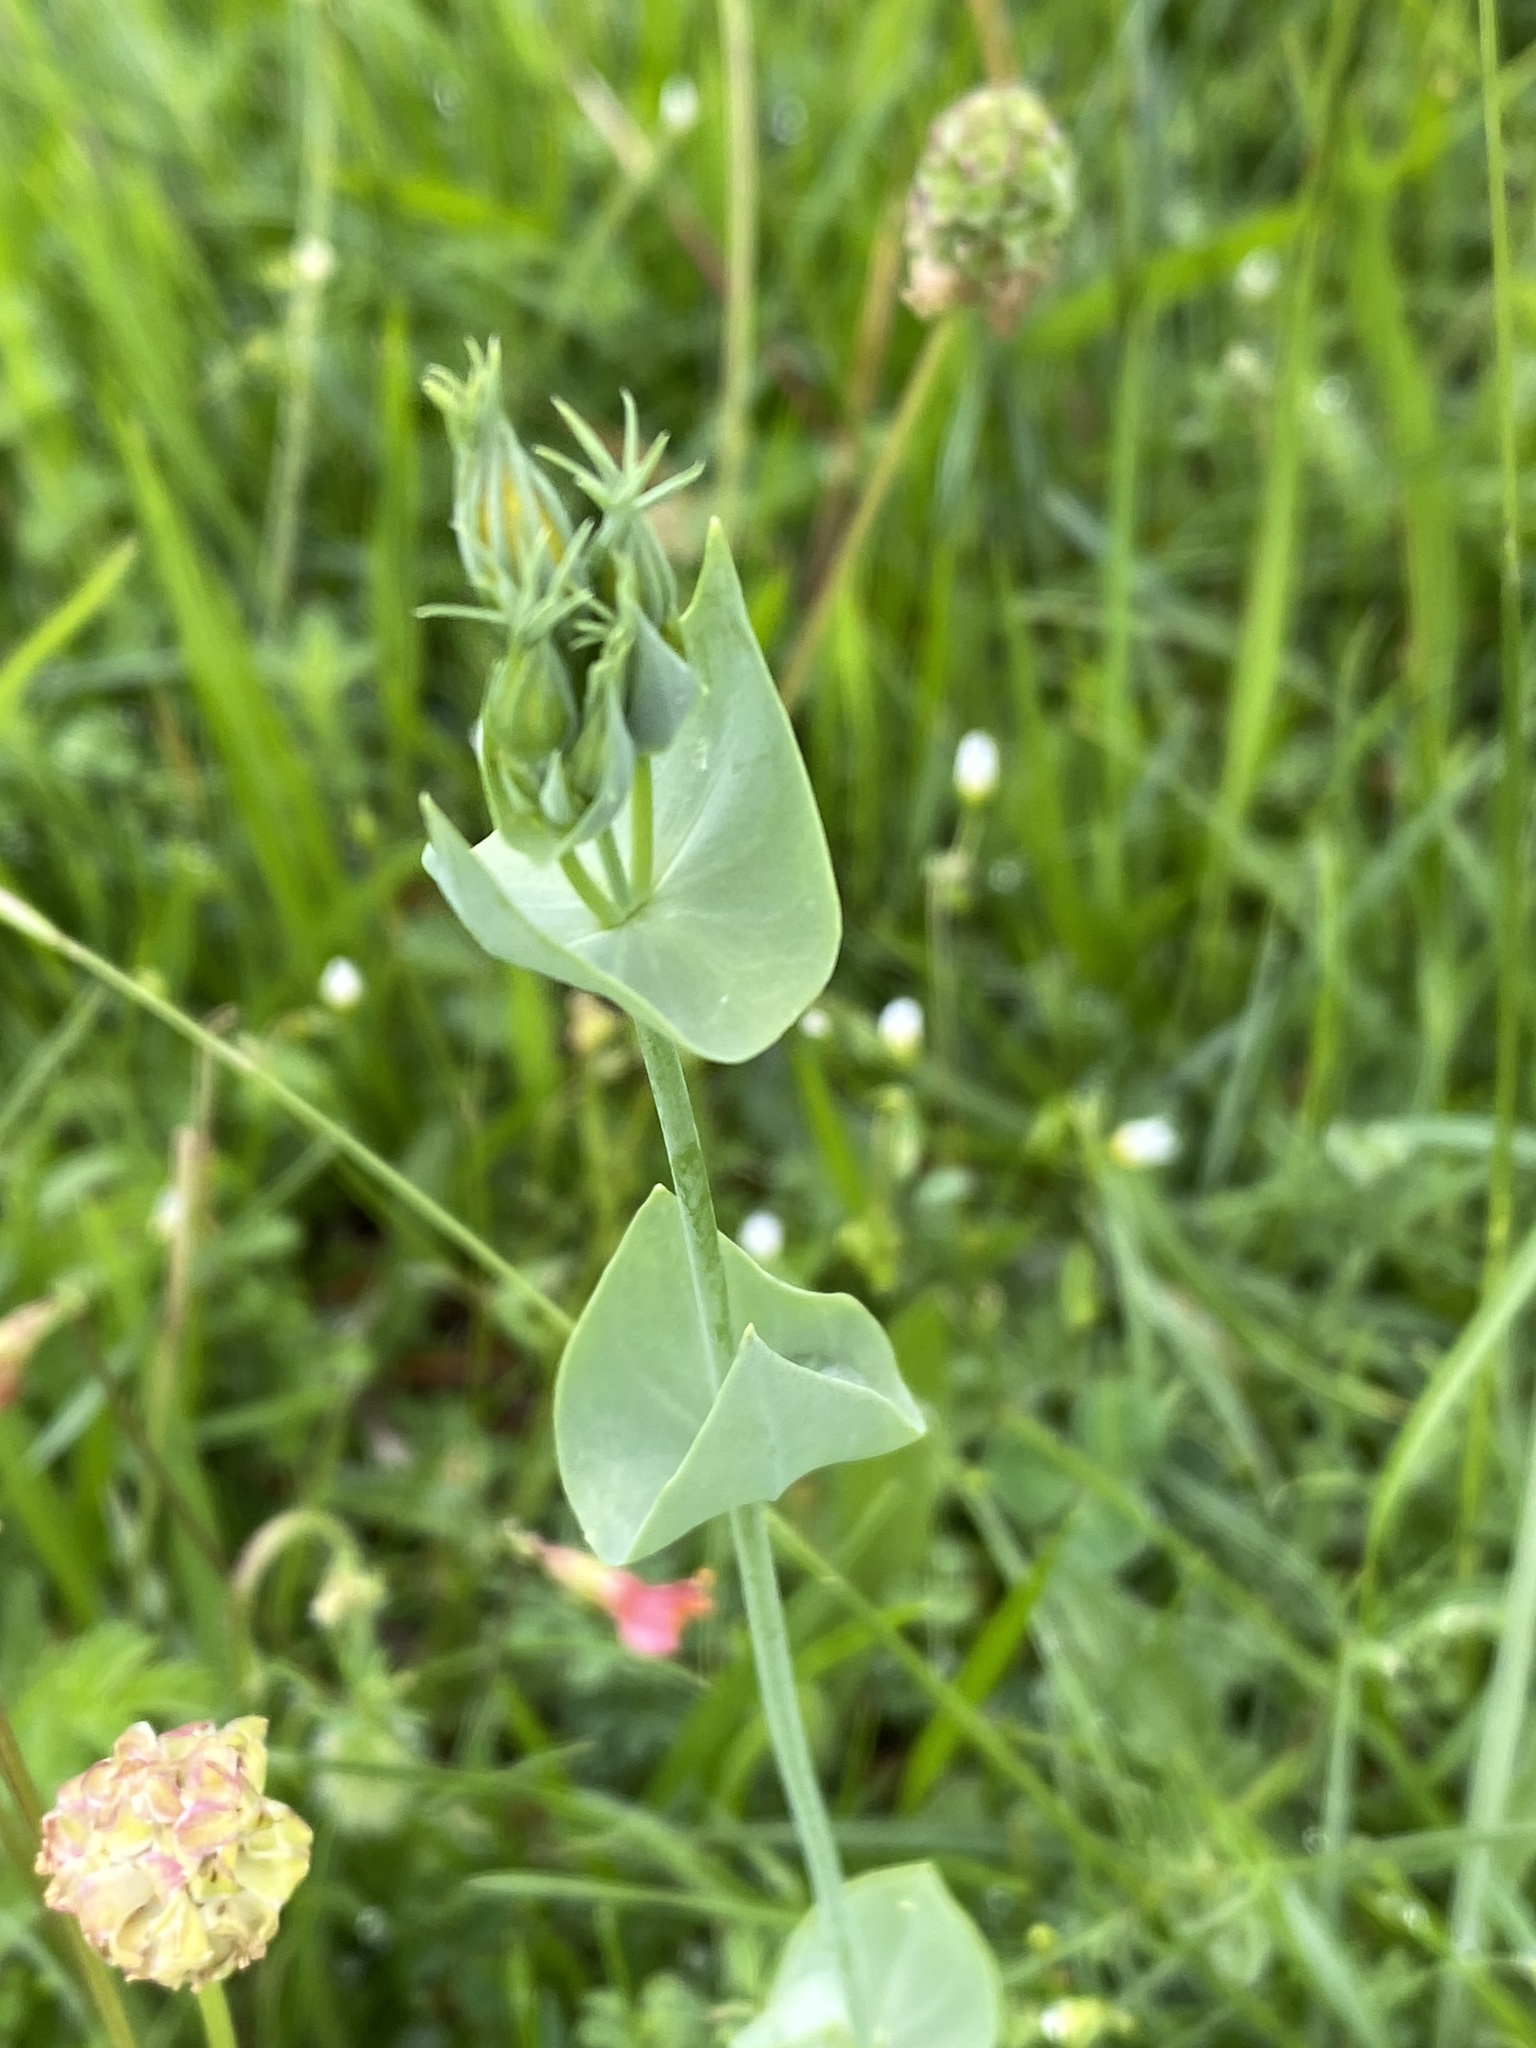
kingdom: Plantae
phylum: Tracheophyta
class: Magnoliopsida
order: Gentianales
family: Gentianaceae
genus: Blackstonia
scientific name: Blackstonia perfoliata
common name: Yellow-wort
